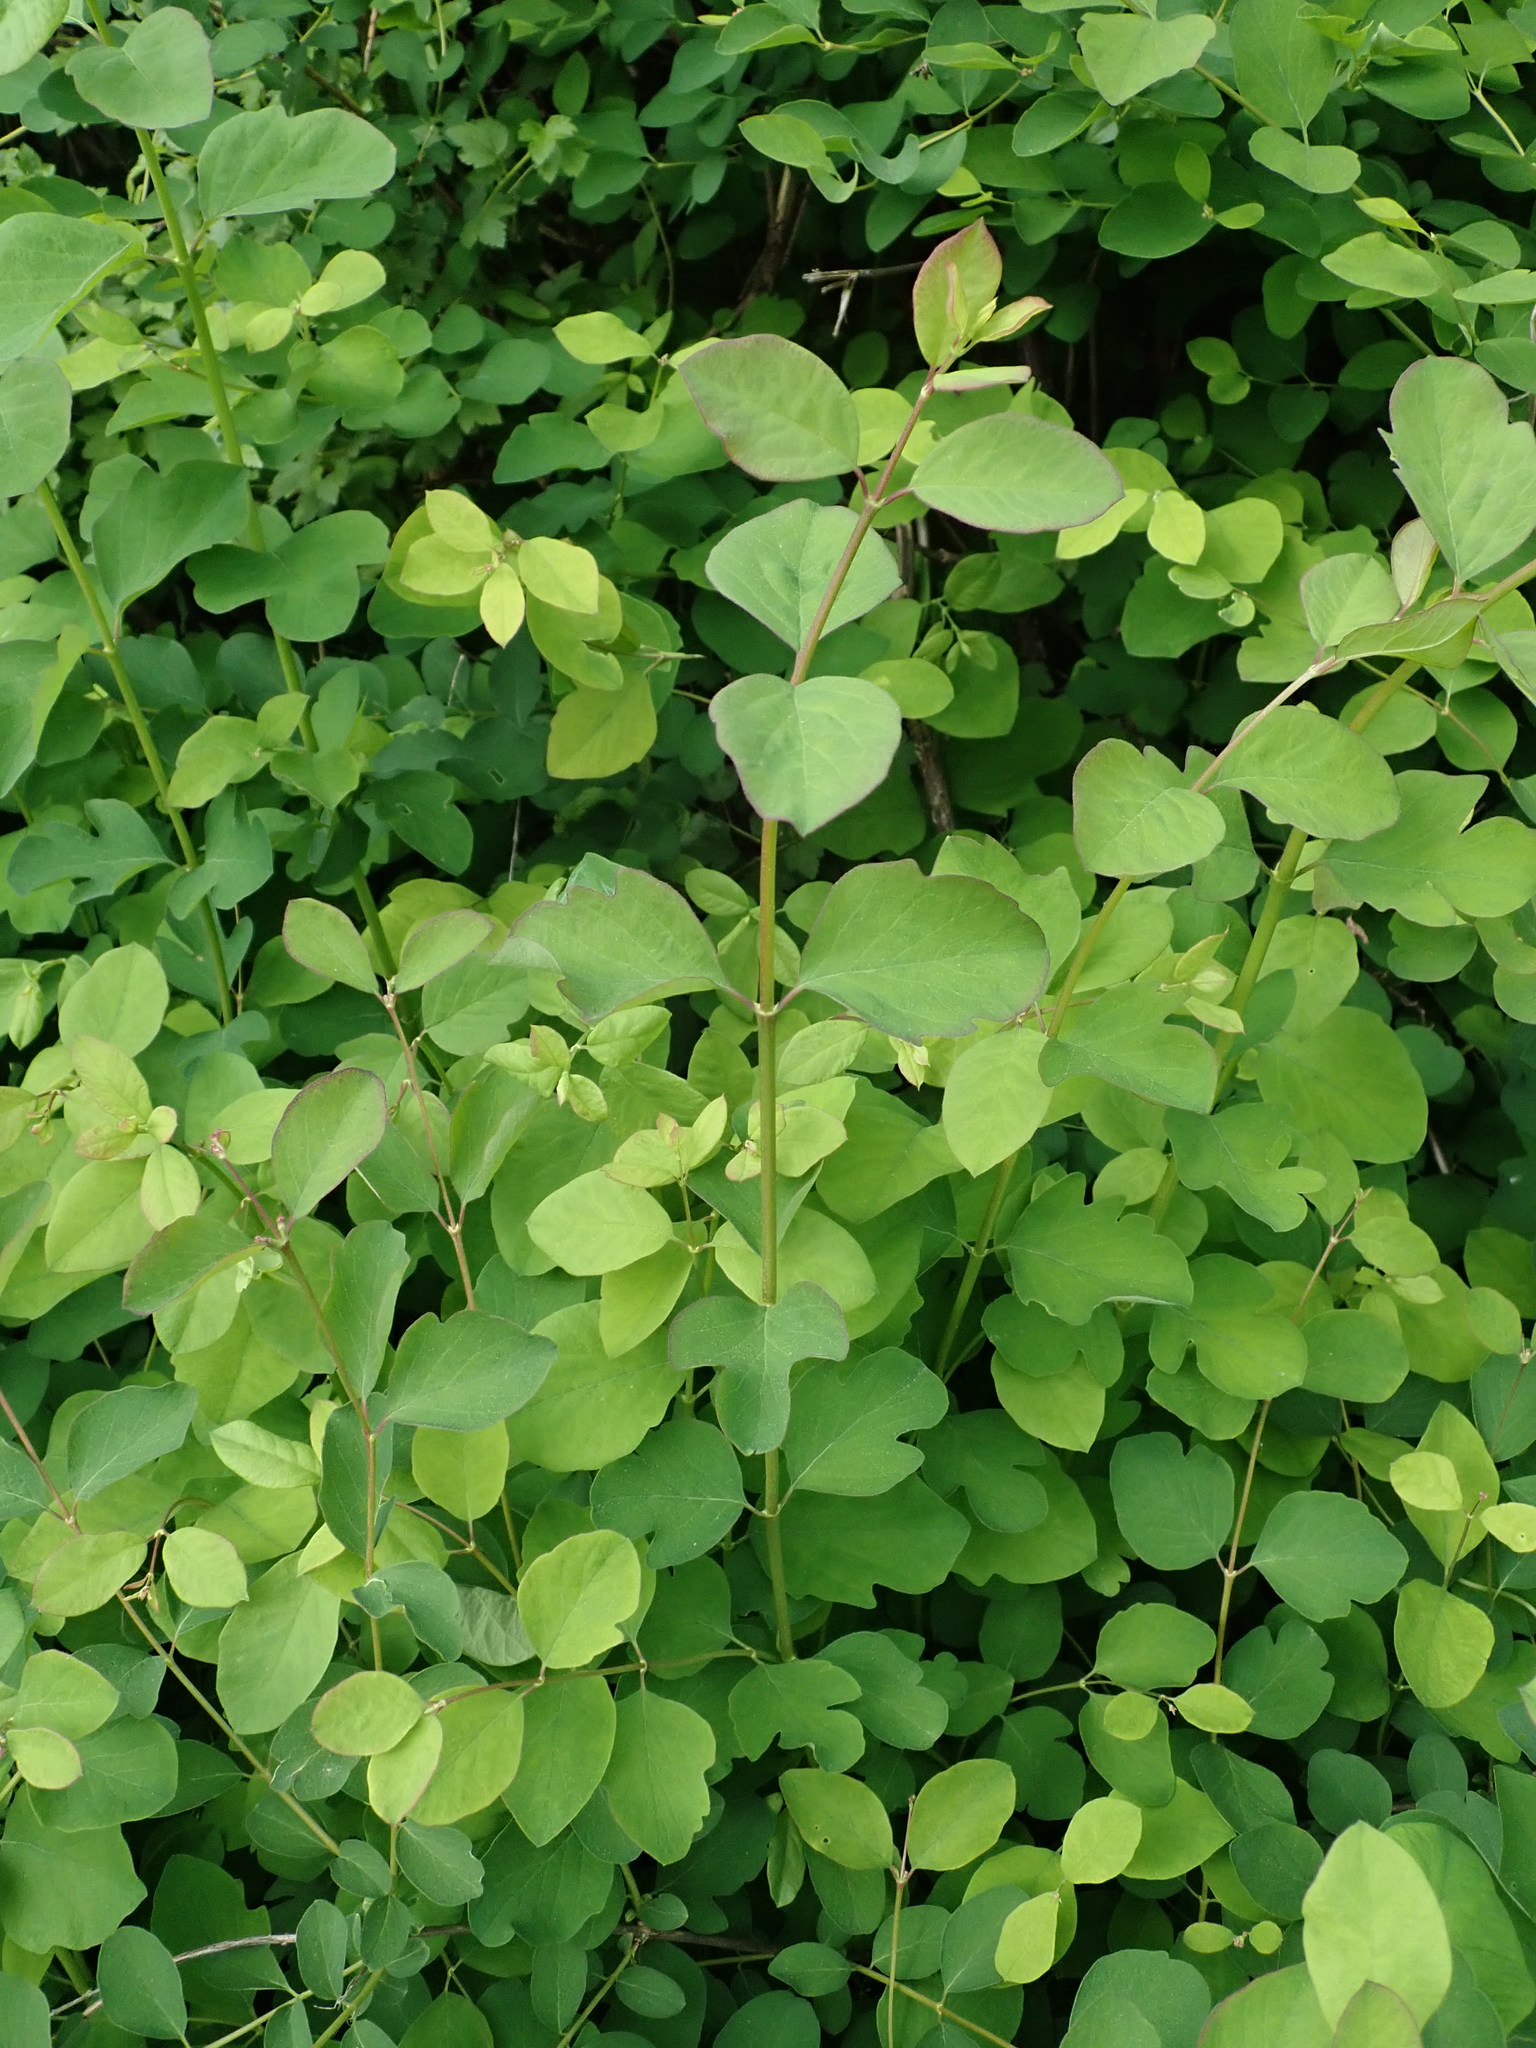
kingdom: Plantae
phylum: Tracheophyta
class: Magnoliopsida
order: Dipsacales
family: Caprifoliaceae
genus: Symphoricarpos
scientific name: Symphoricarpos albus
